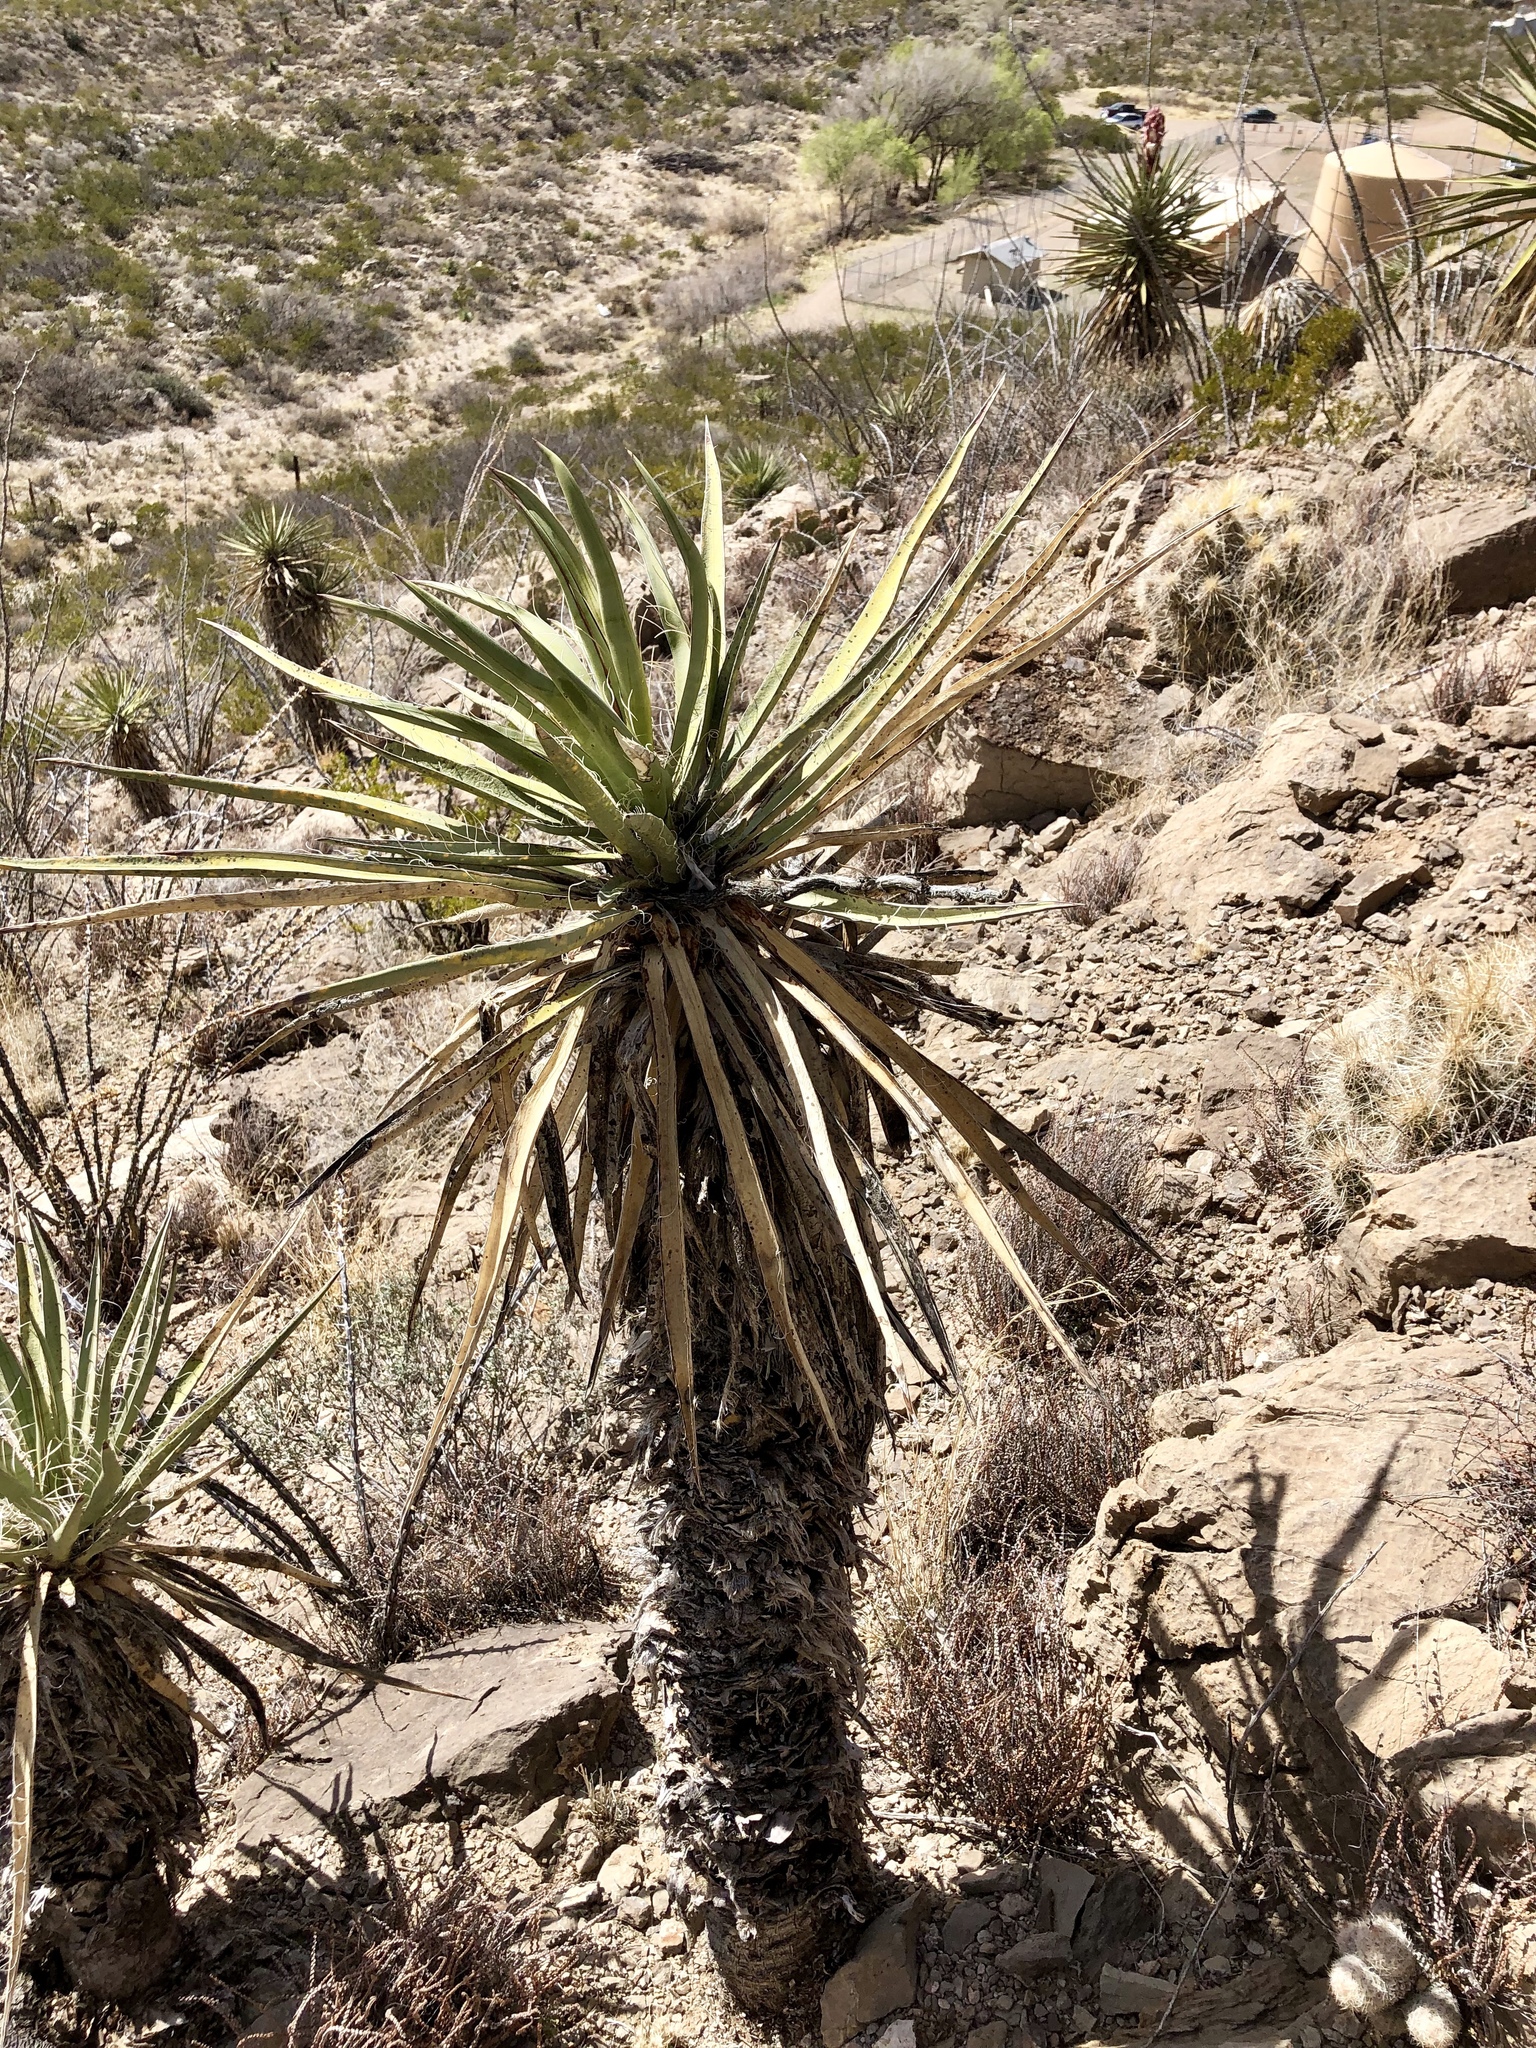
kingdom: Plantae
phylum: Tracheophyta
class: Liliopsida
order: Asparagales
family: Asparagaceae
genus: Yucca
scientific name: Yucca treculiana
